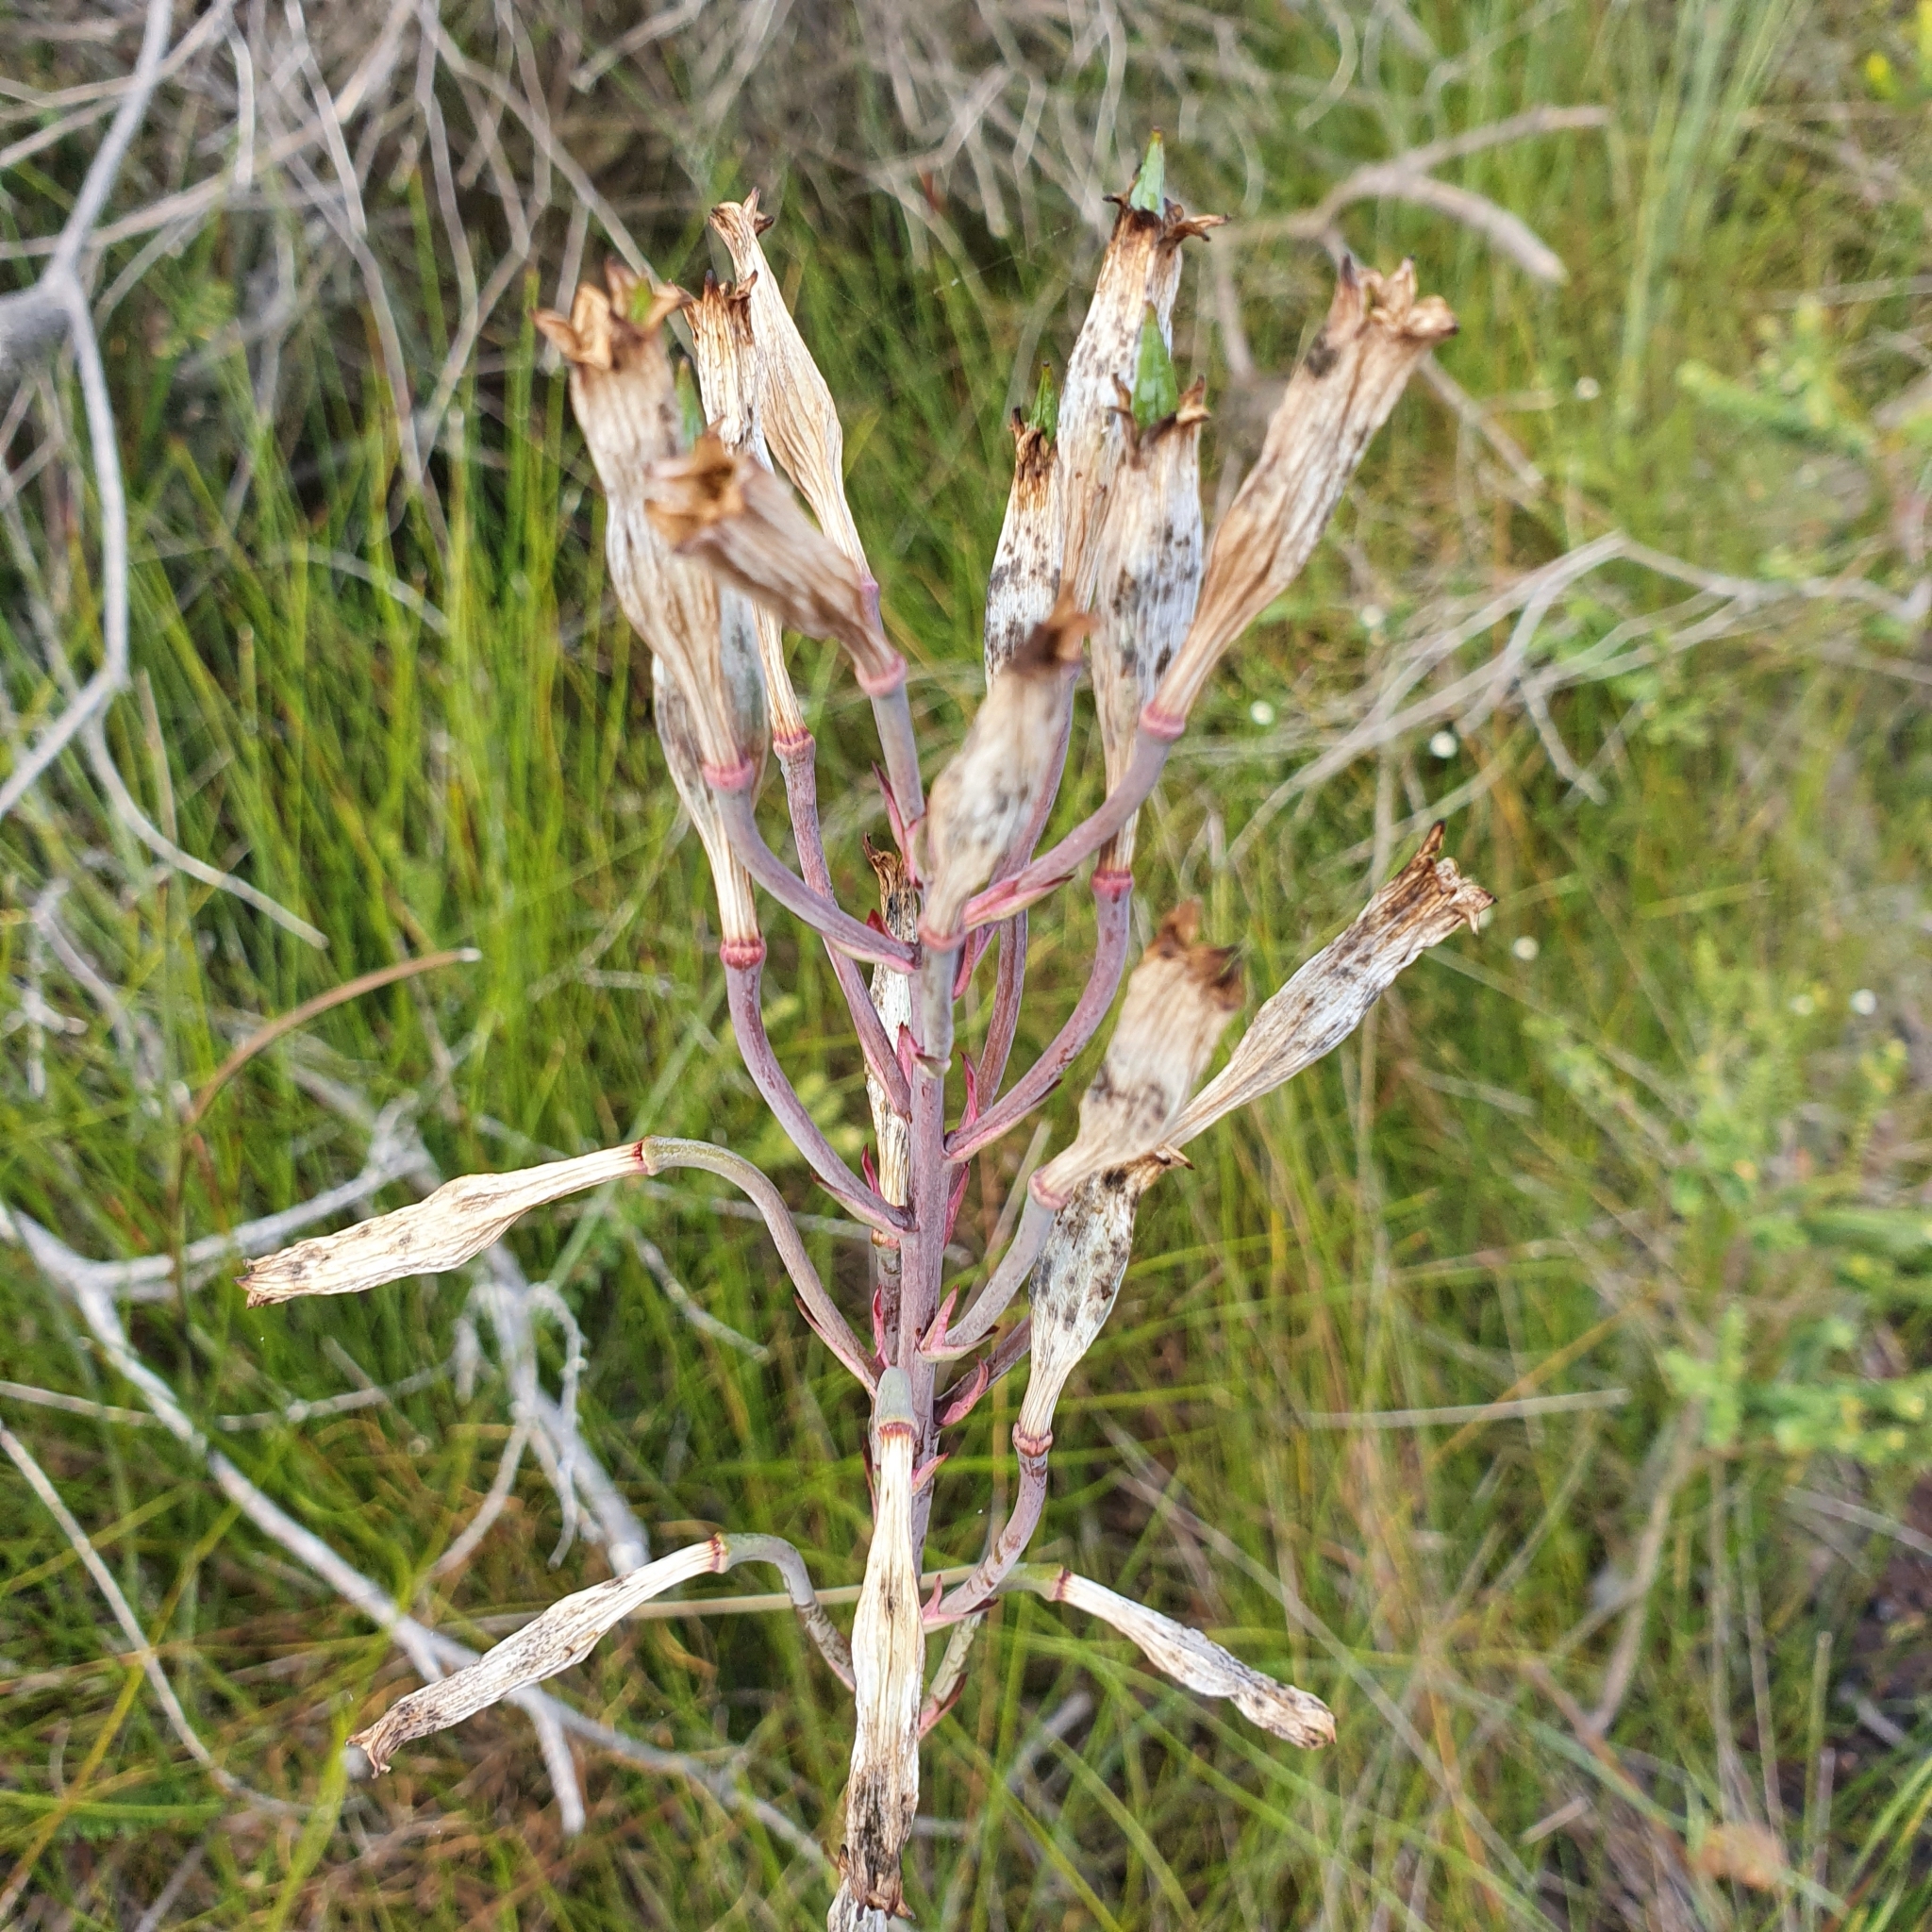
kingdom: Plantae
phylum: Tracheophyta
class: Liliopsida
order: Asparagales
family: Blandfordiaceae
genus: Blandfordia
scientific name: Blandfordia nobilis
